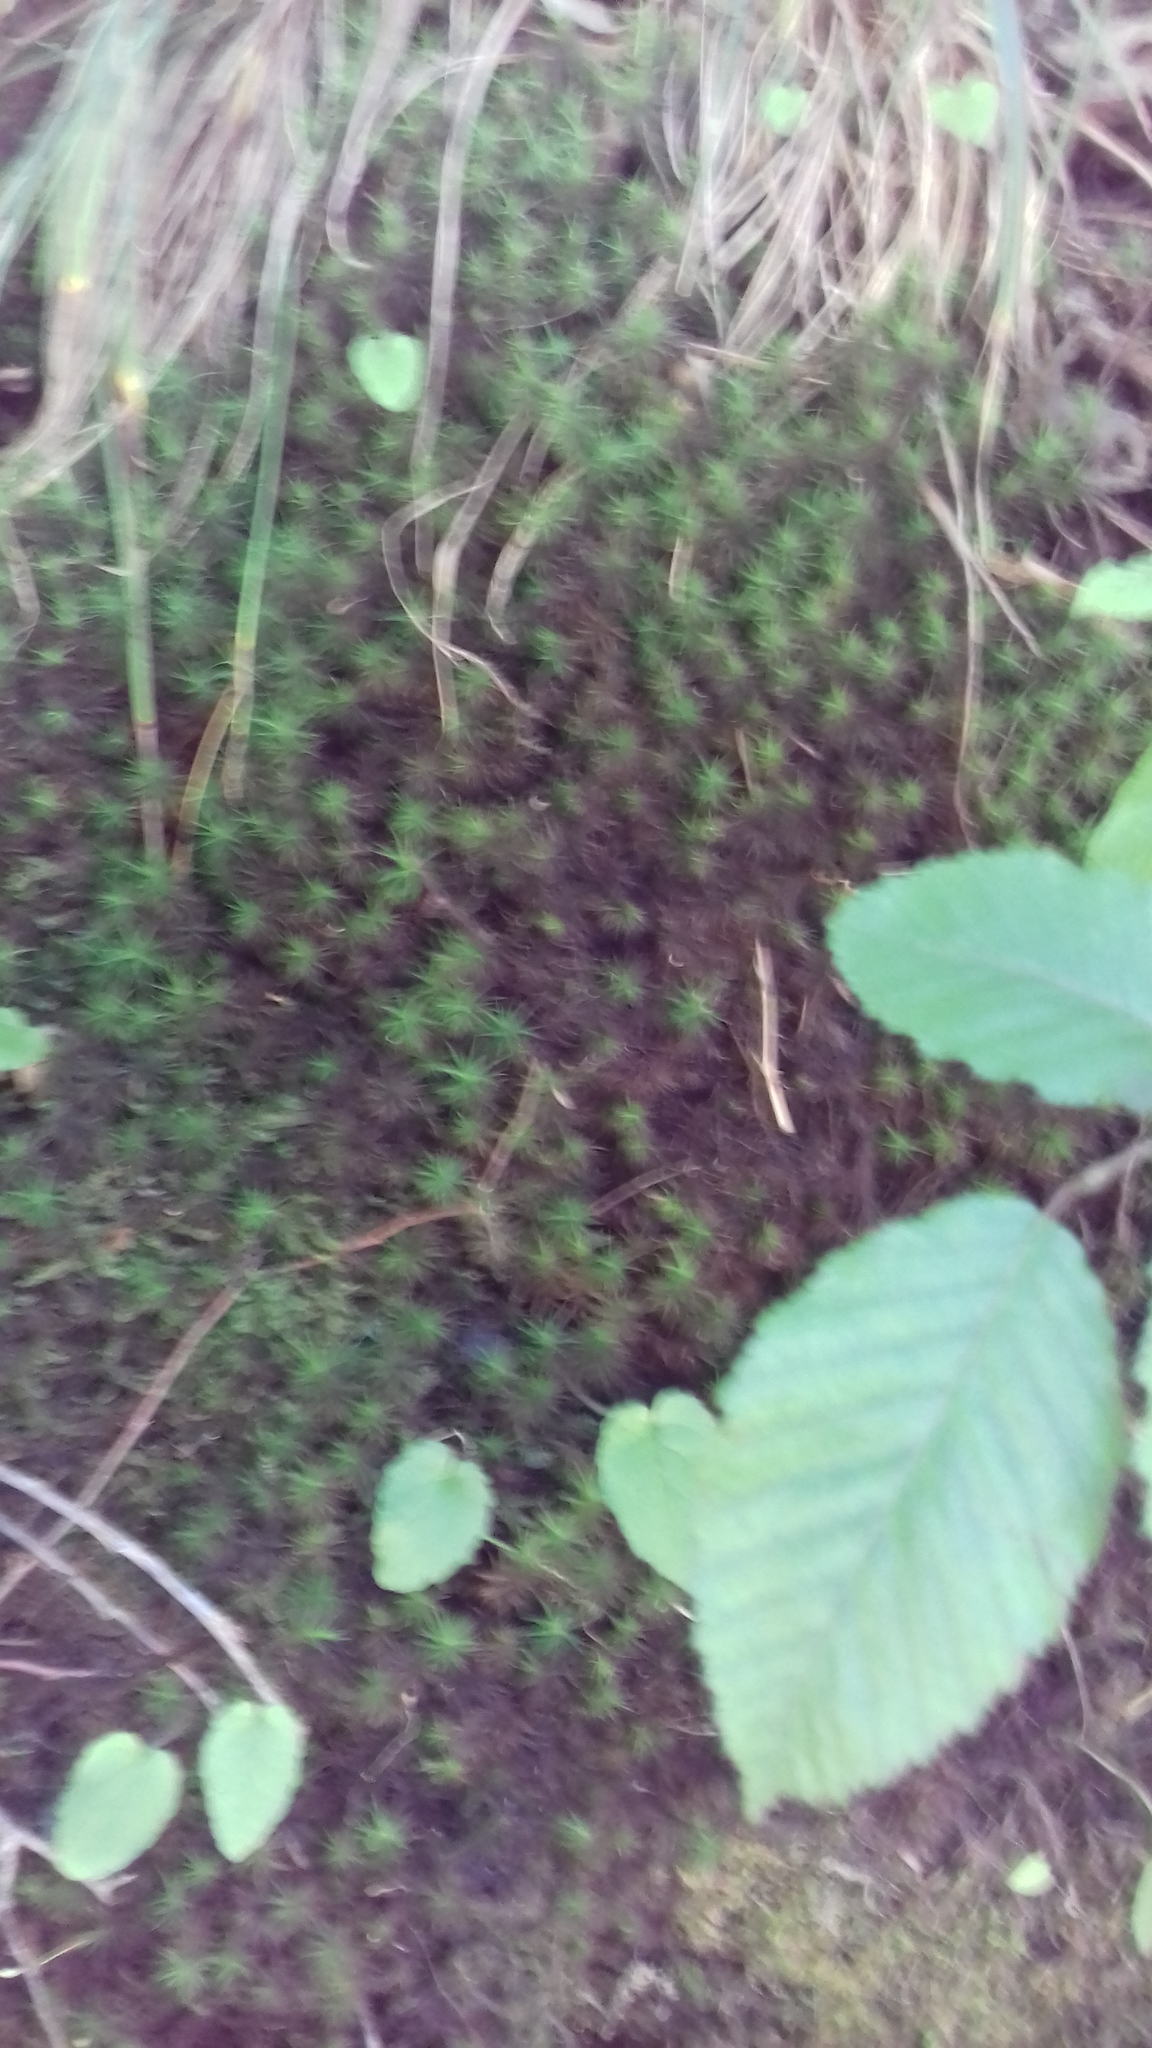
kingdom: Plantae
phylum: Bryophyta
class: Polytrichopsida
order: Polytrichales
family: Polytrichaceae
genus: Polytrichum
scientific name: Polytrichum formosum
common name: Bank haircap moss
